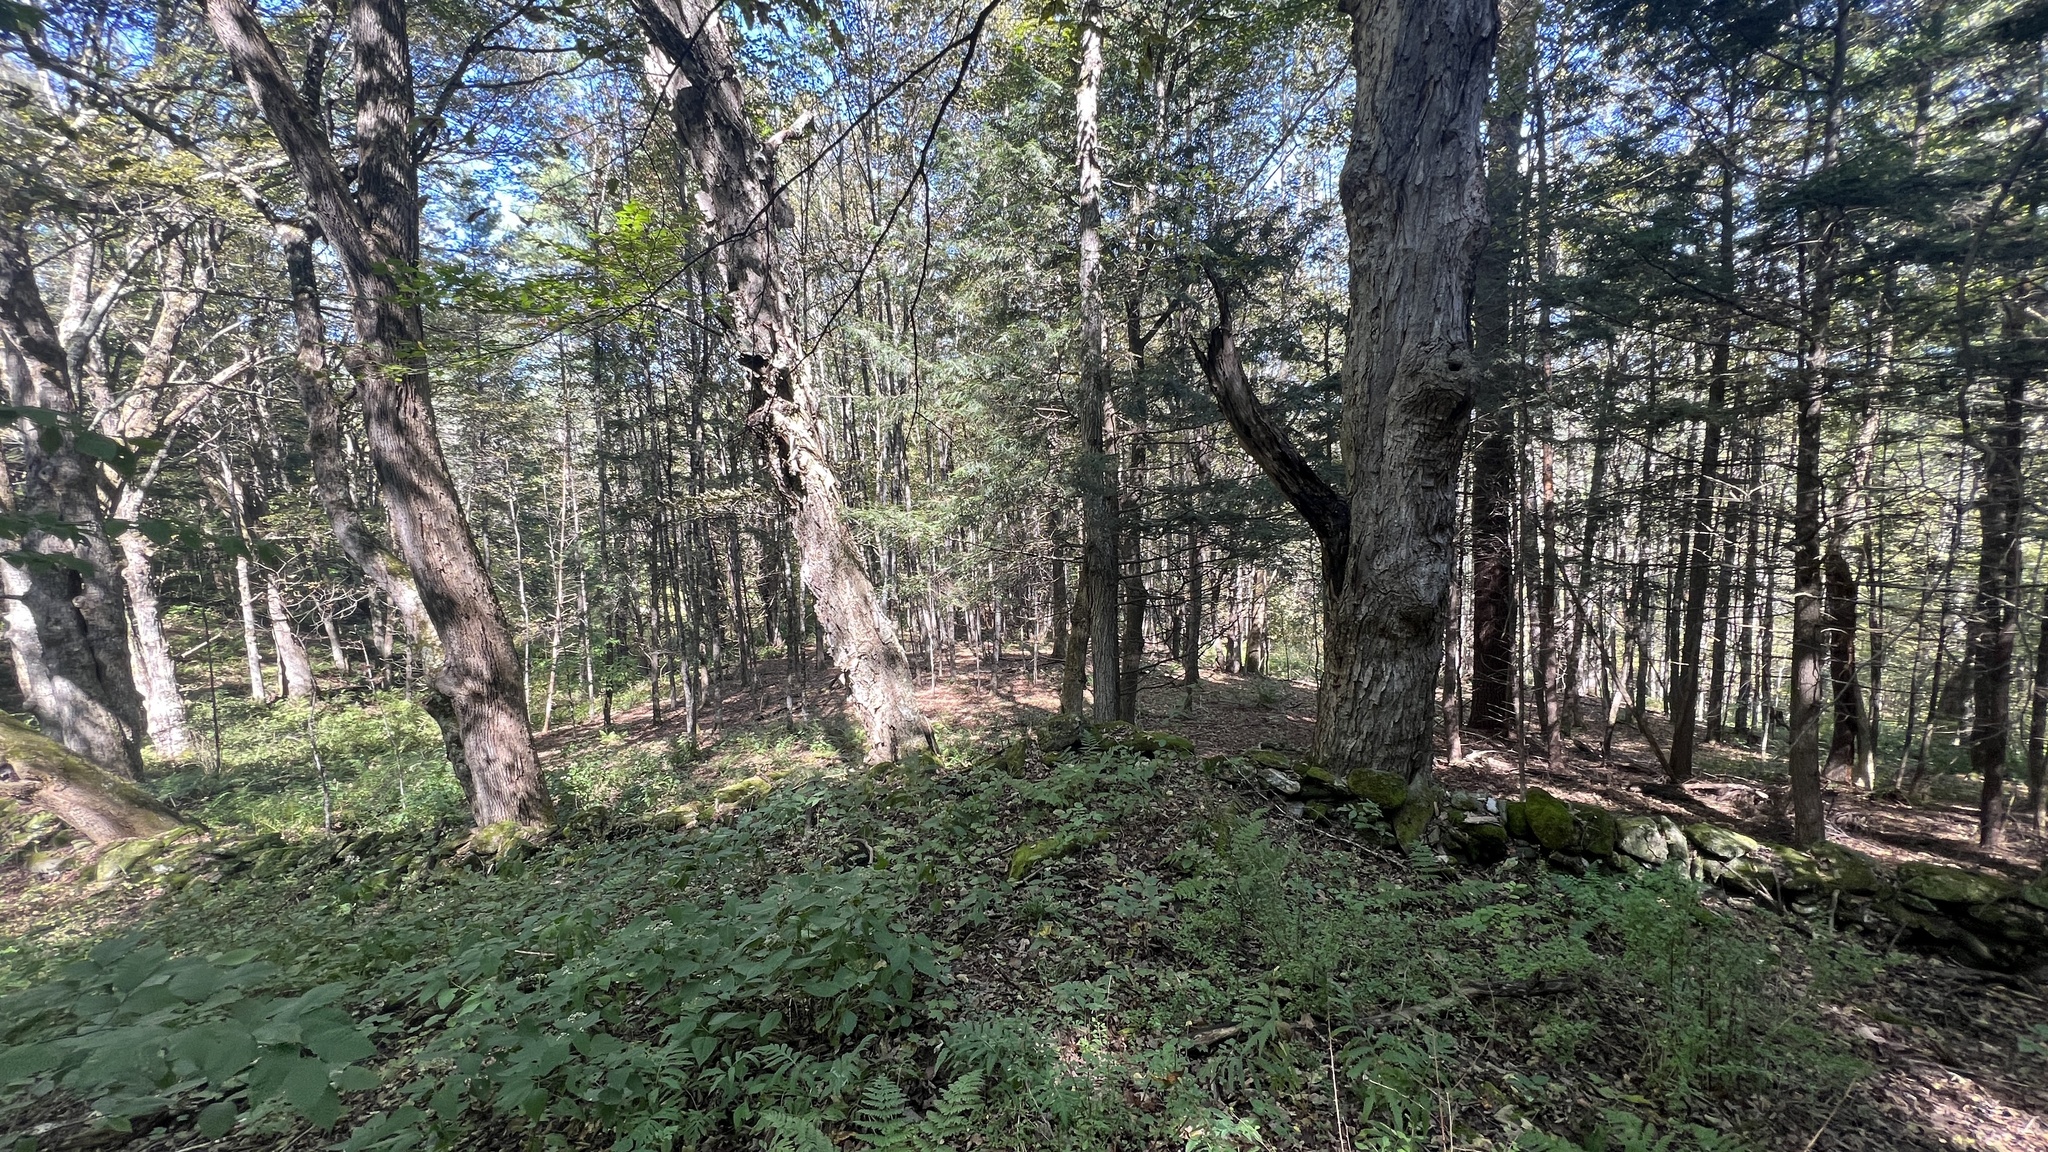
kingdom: Plantae
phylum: Tracheophyta
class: Magnoliopsida
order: Sapindales
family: Sapindaceae
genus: Acer
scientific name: Acer saccharum
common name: Sugar maple
